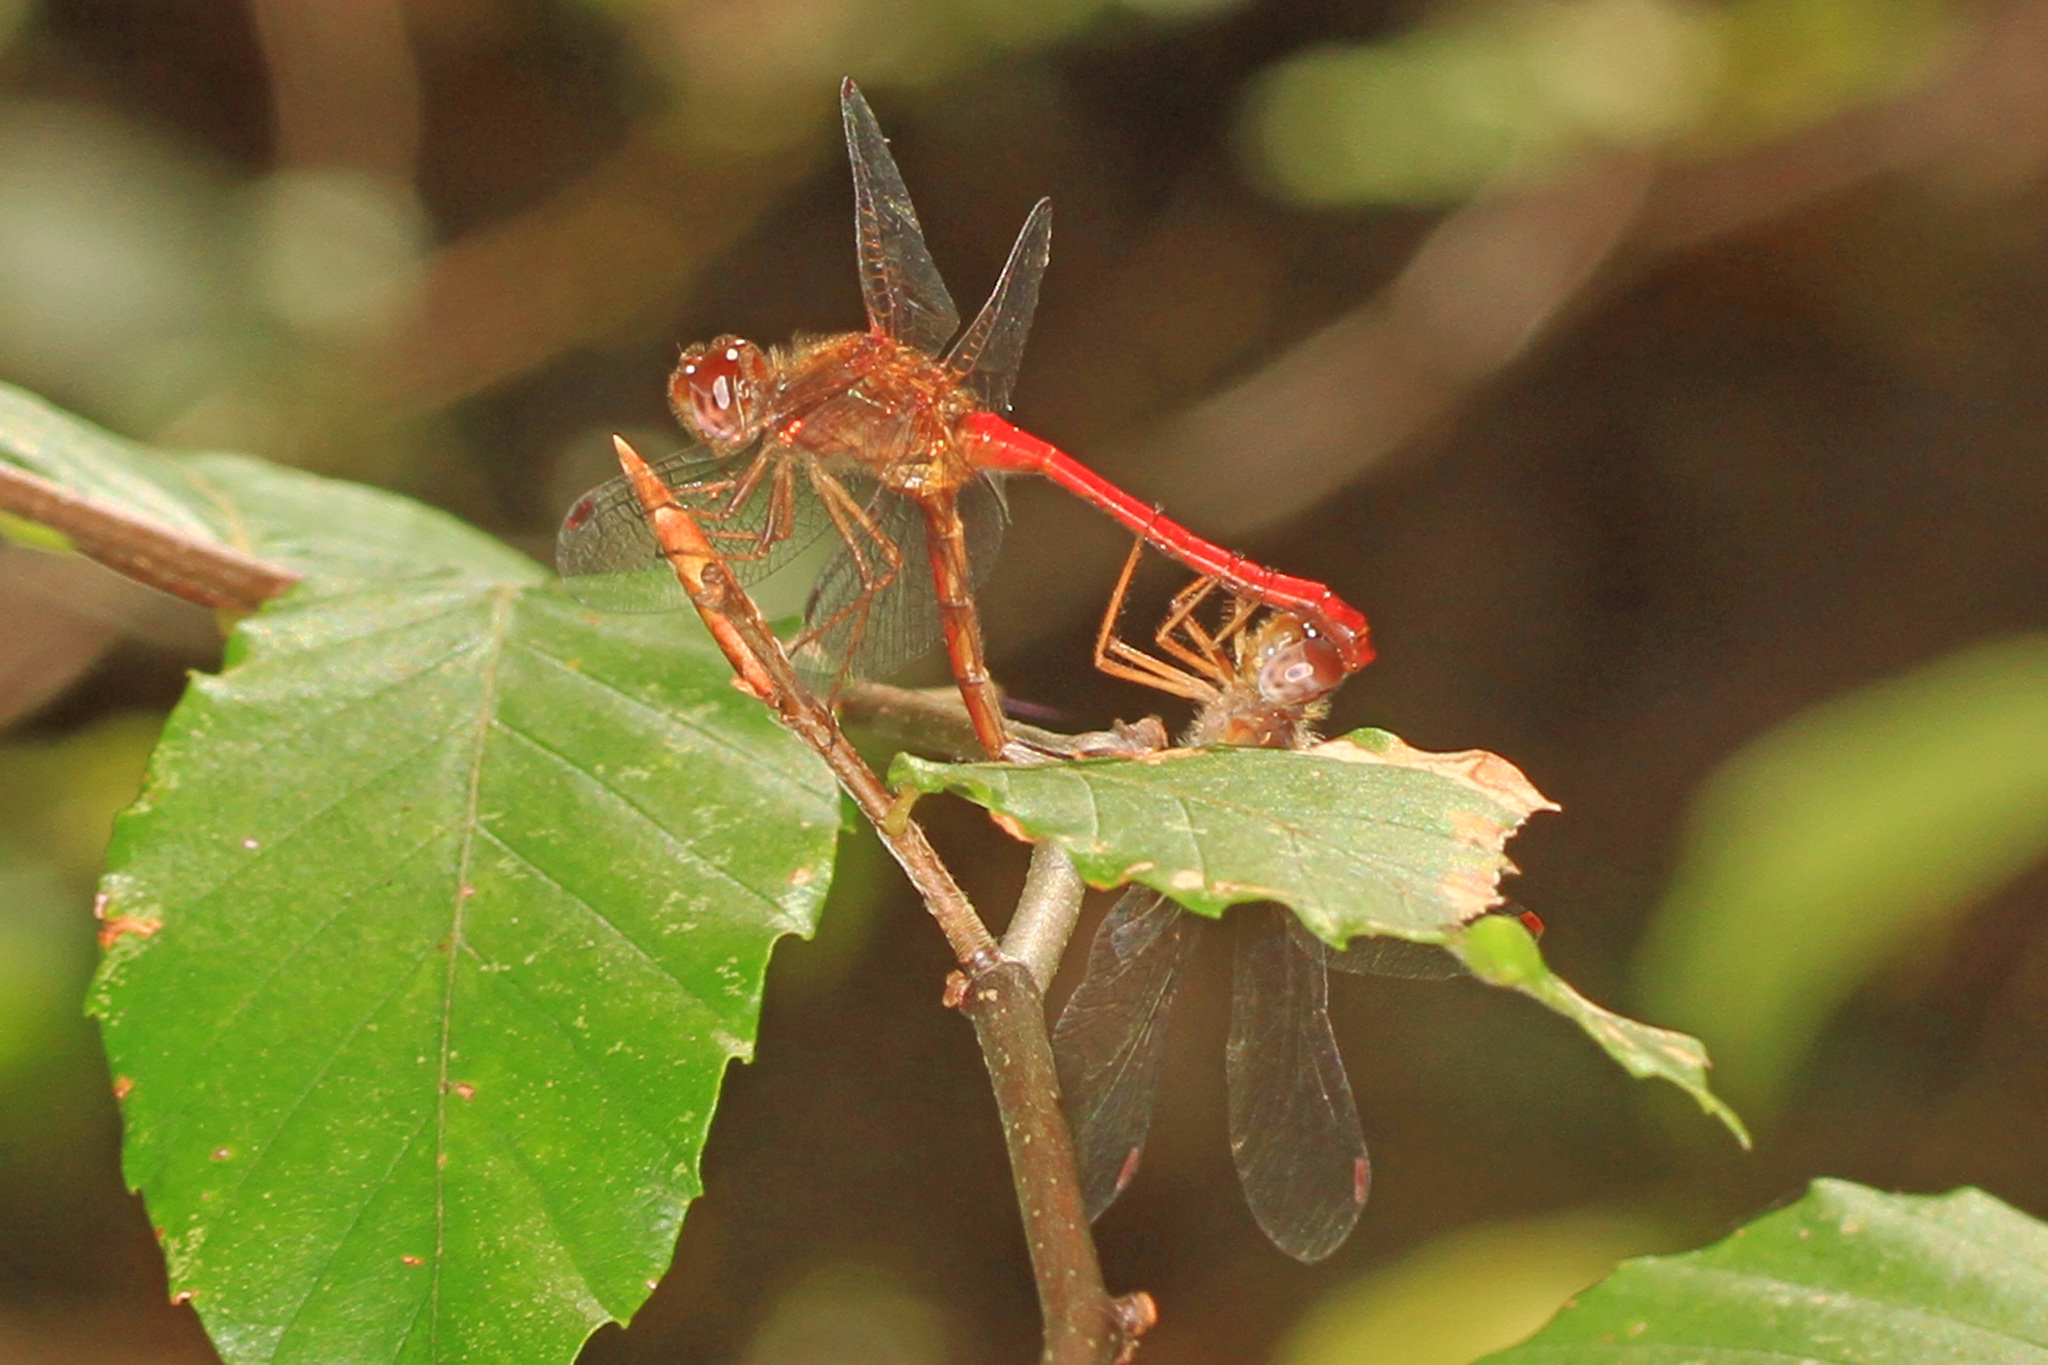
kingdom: Animalia
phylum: Arthropoda
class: Insecta
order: Odonata
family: Libellulidae
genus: Sympetrum
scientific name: Sympetrum vicinum
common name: Autumn meadowhawk
